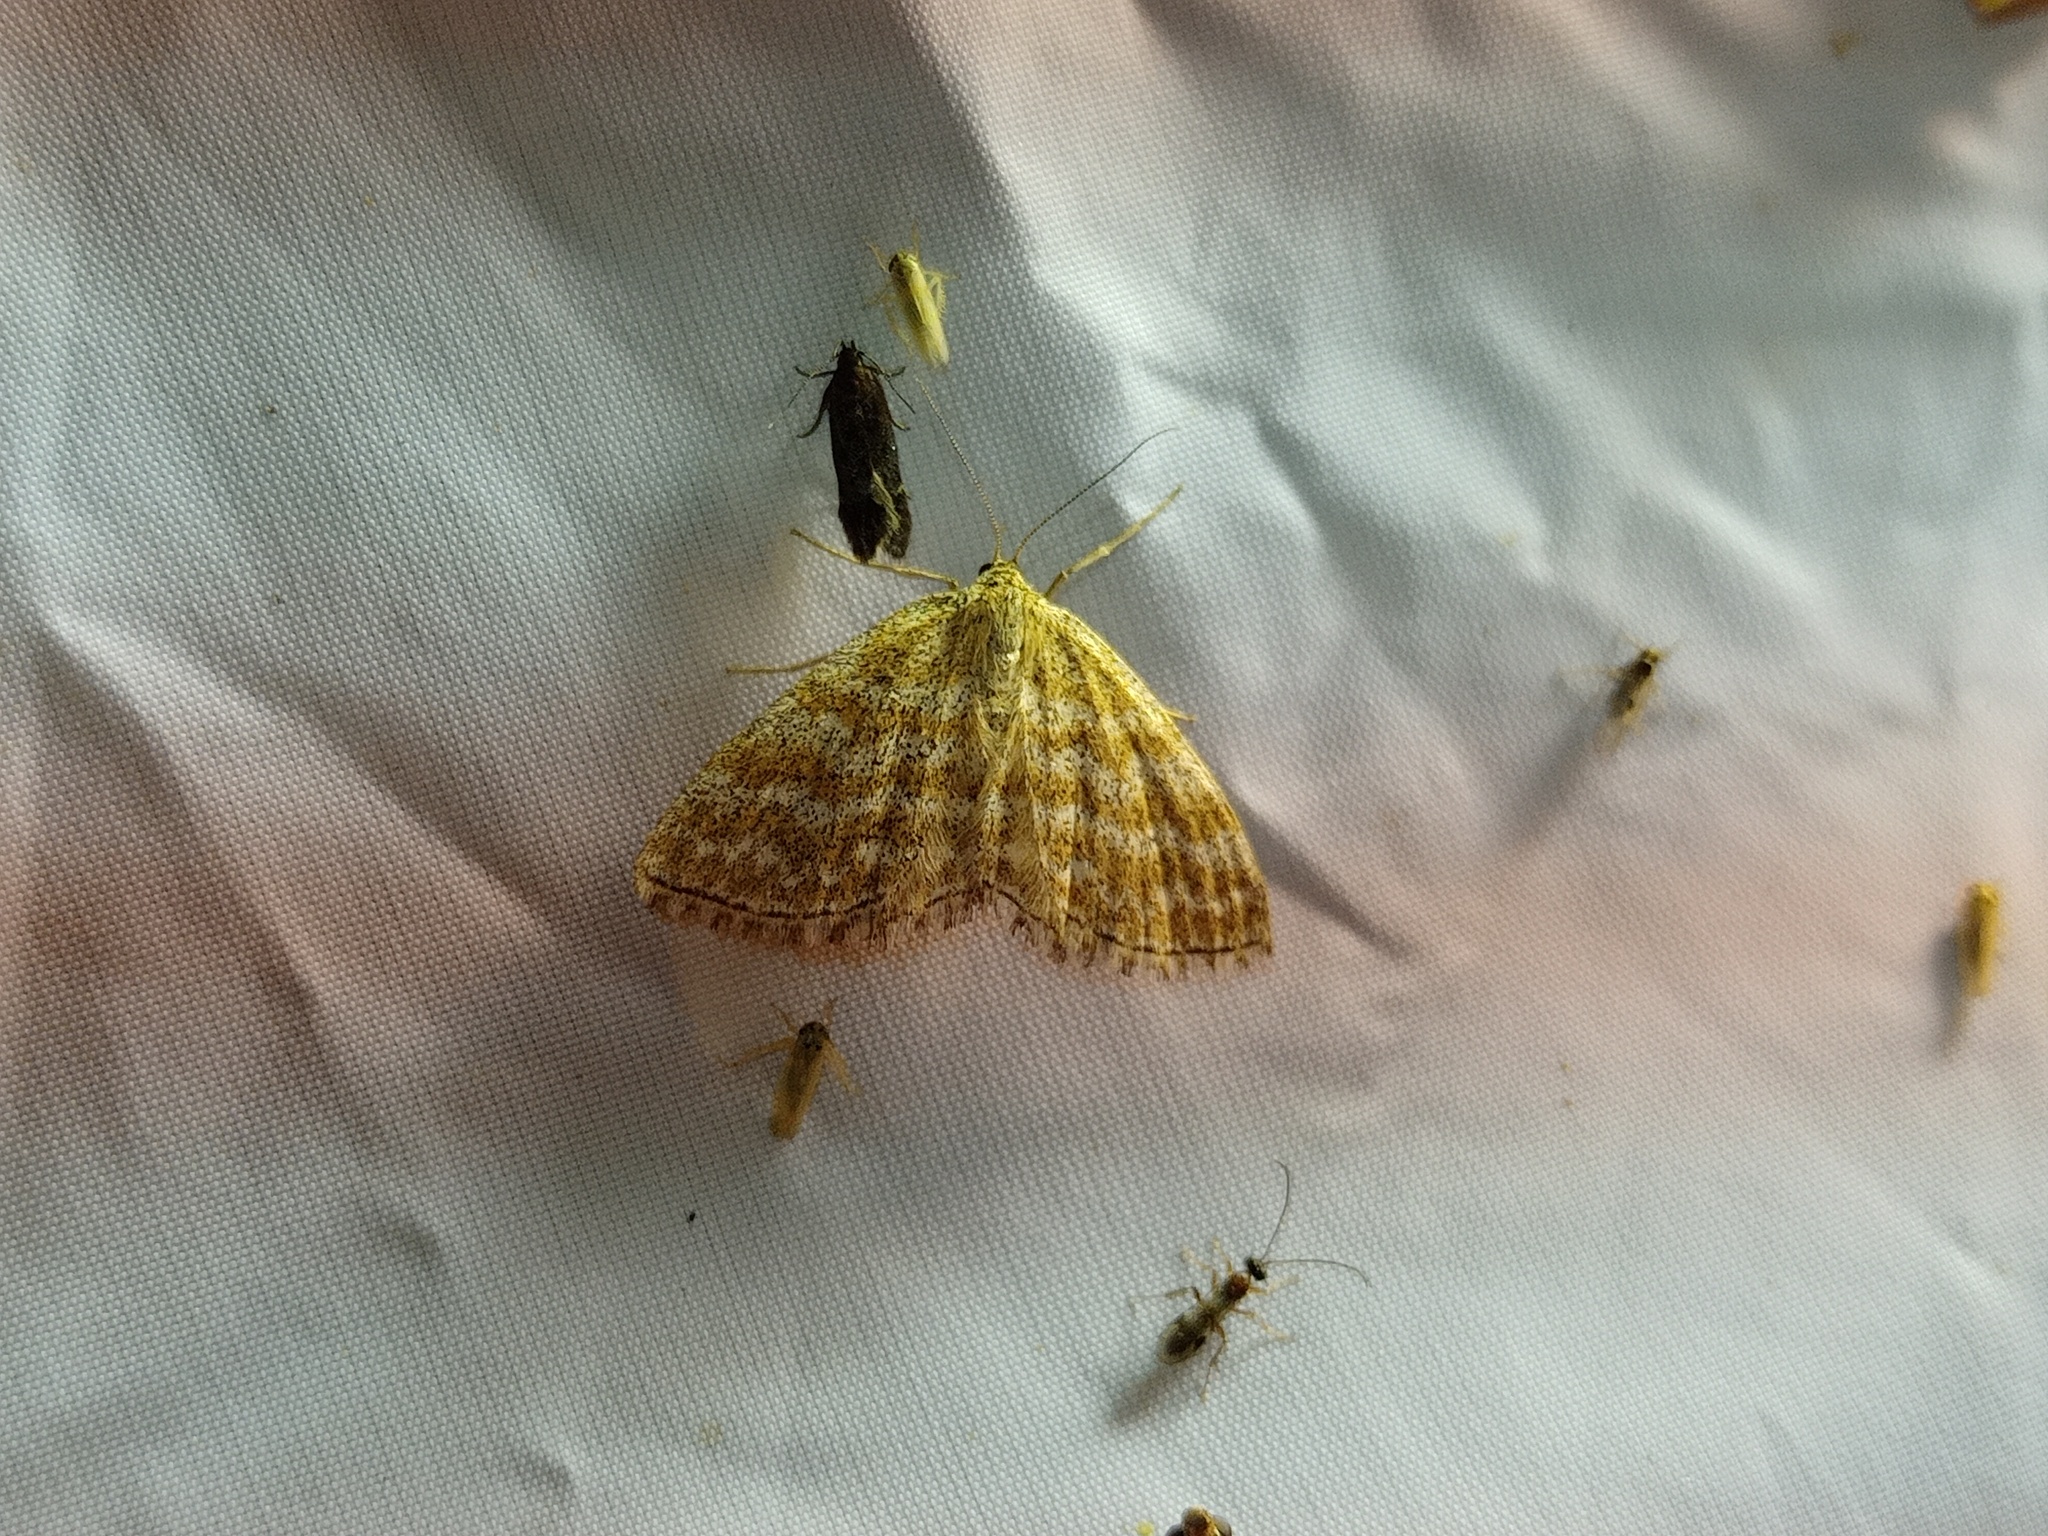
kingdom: Animalia
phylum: Arthropoda
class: Insecta
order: Lepidoptera
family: Geometridae
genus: Scopula
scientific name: Scopula immorata
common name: Lewes wave
